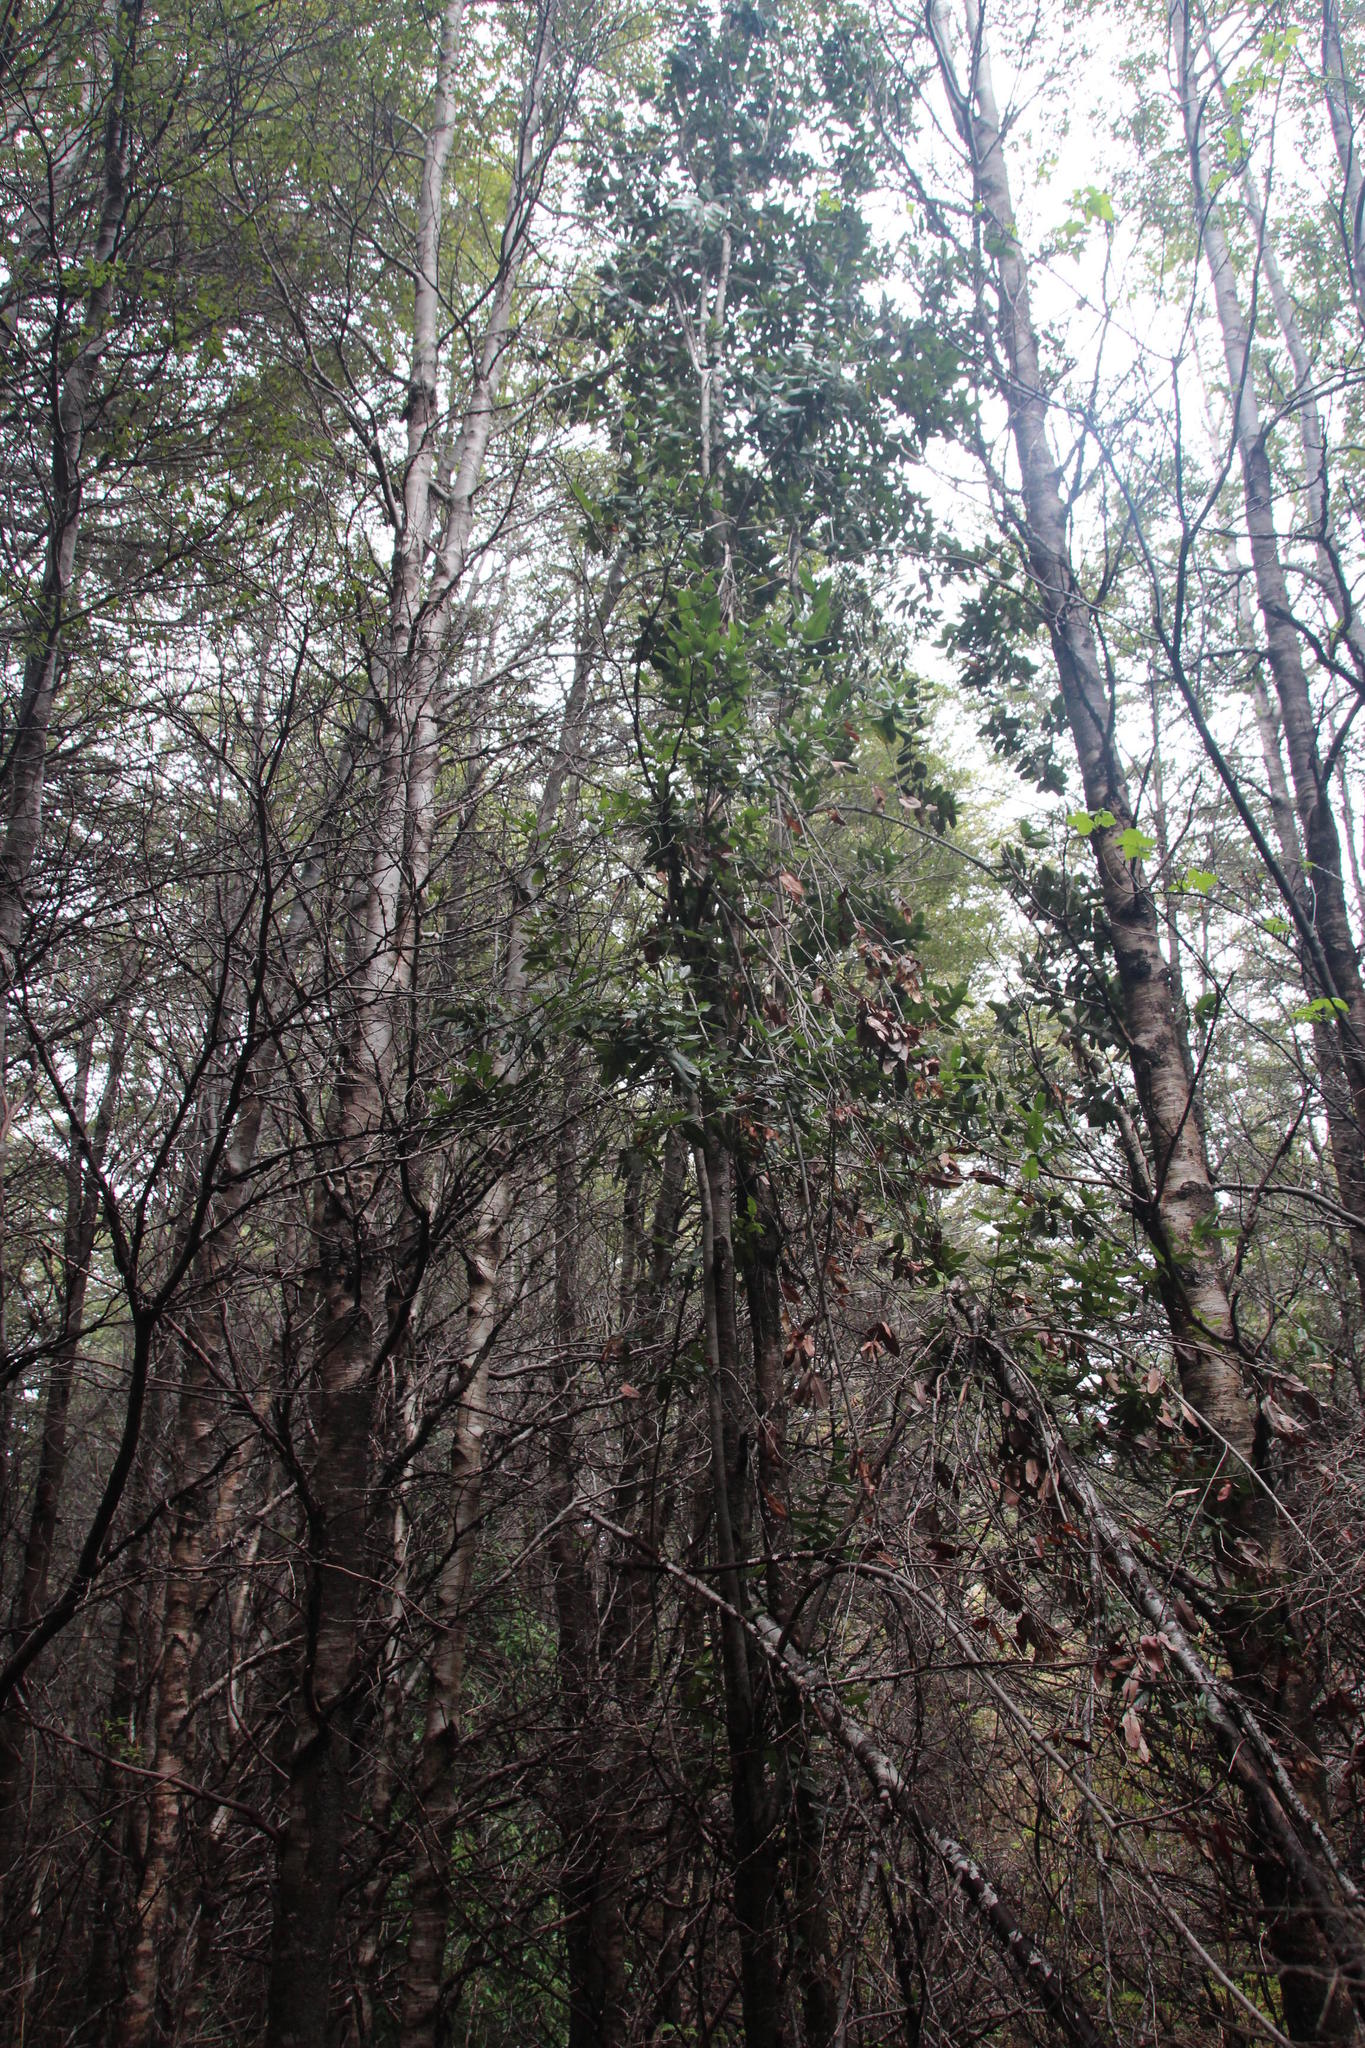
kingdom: Plantae
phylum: Tracheophyta
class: Magnoliopsida
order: Oxalidales
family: Cunoniaceae
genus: Eucryphia
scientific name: Eucryphia cordifolia
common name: Ulmo
